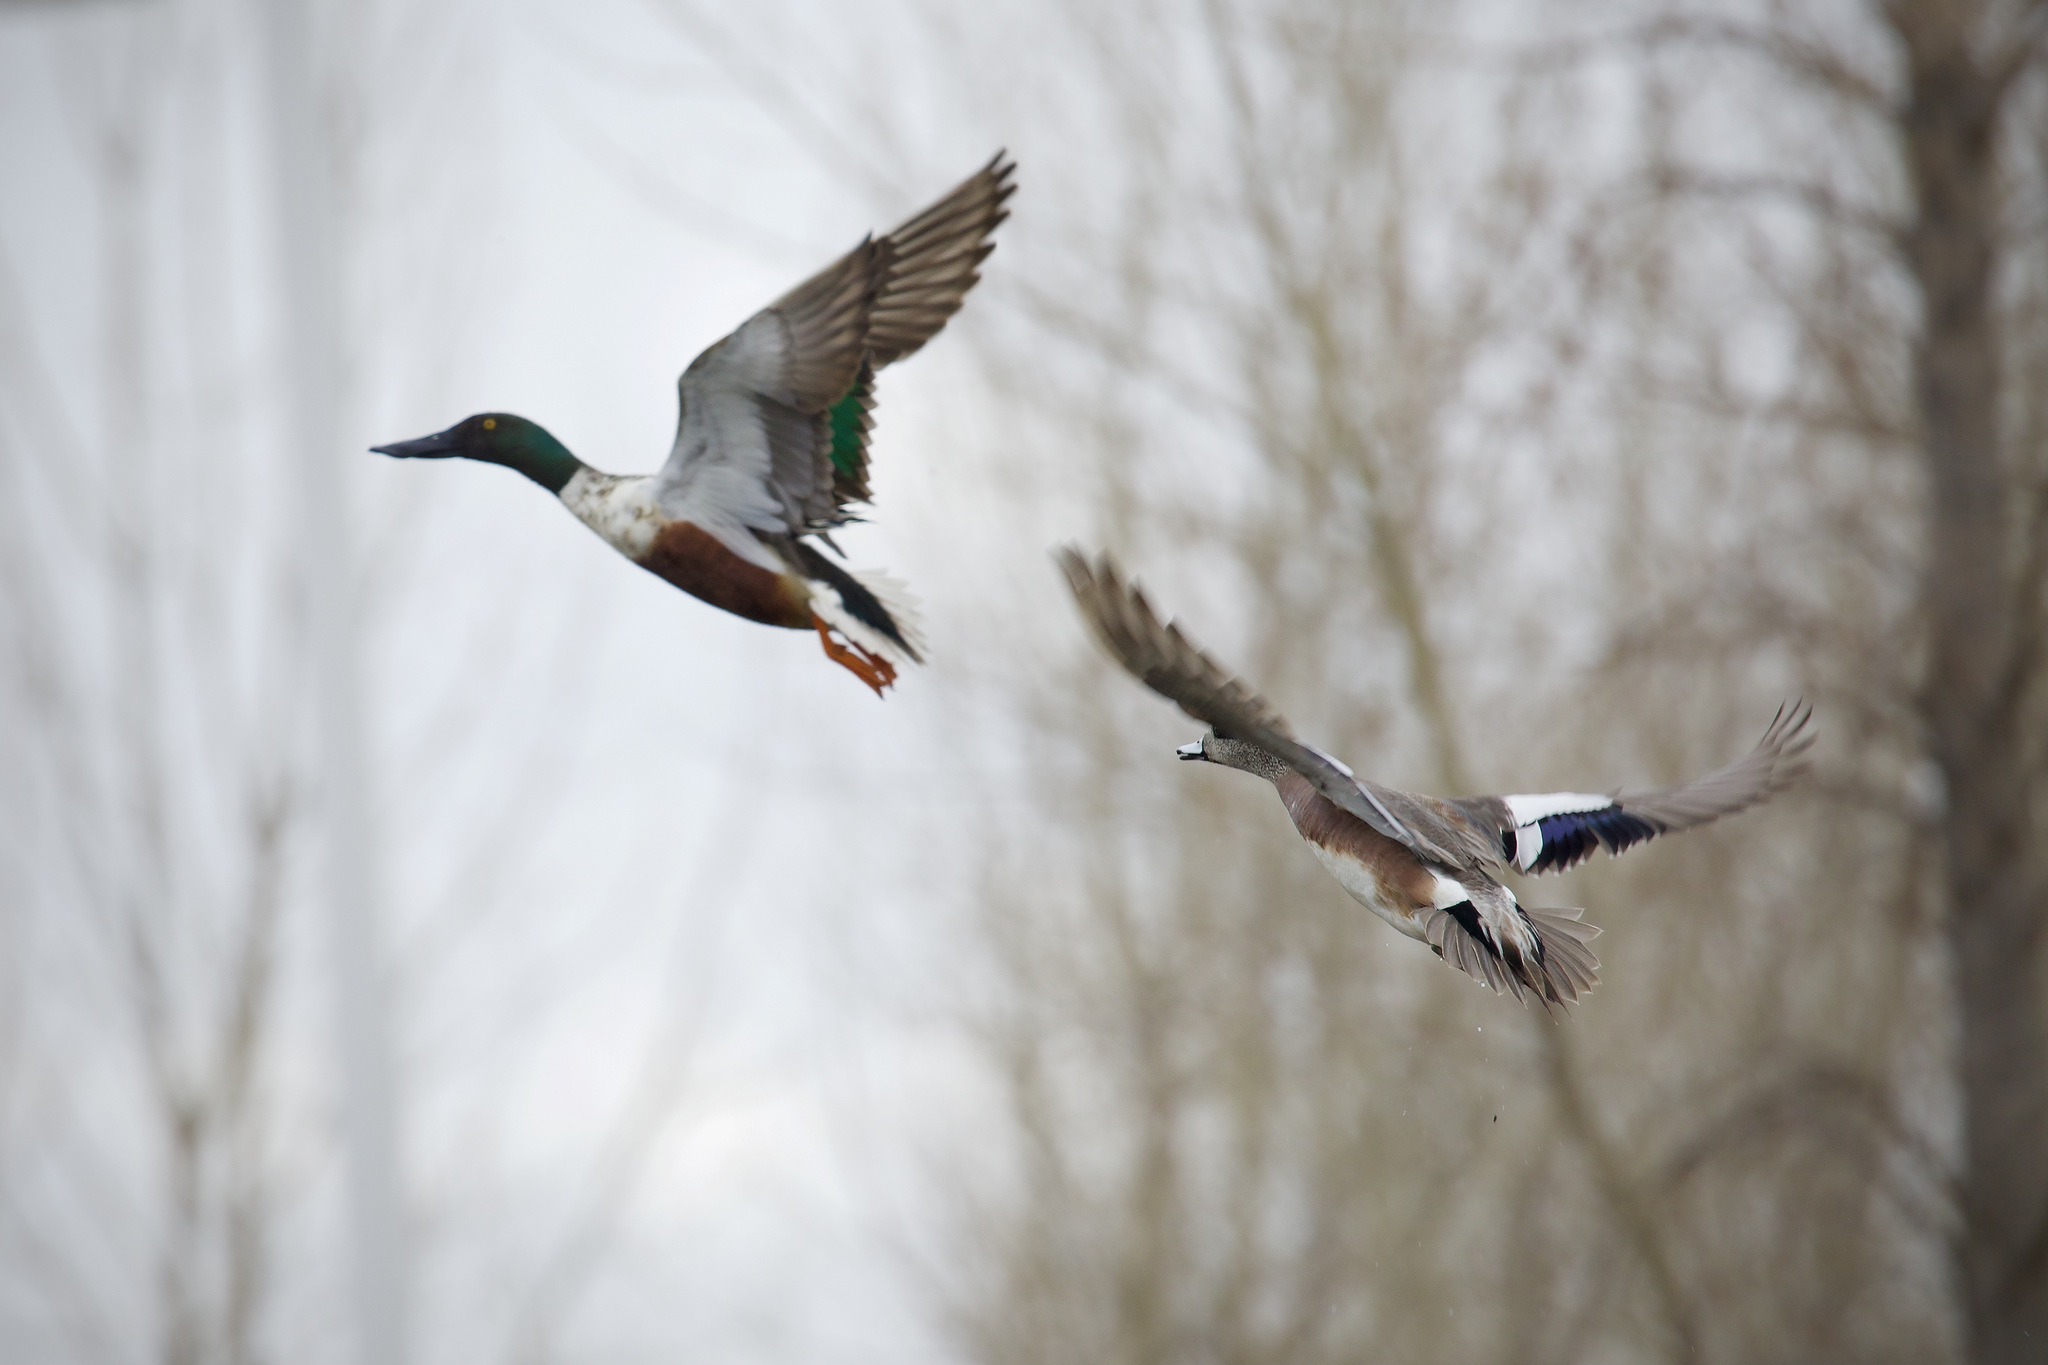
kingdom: Animalia
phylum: Chordata
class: Aves
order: Anseriformes
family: Anatidae
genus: Spatula
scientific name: Spatula clypeata
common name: Northern shoveler
